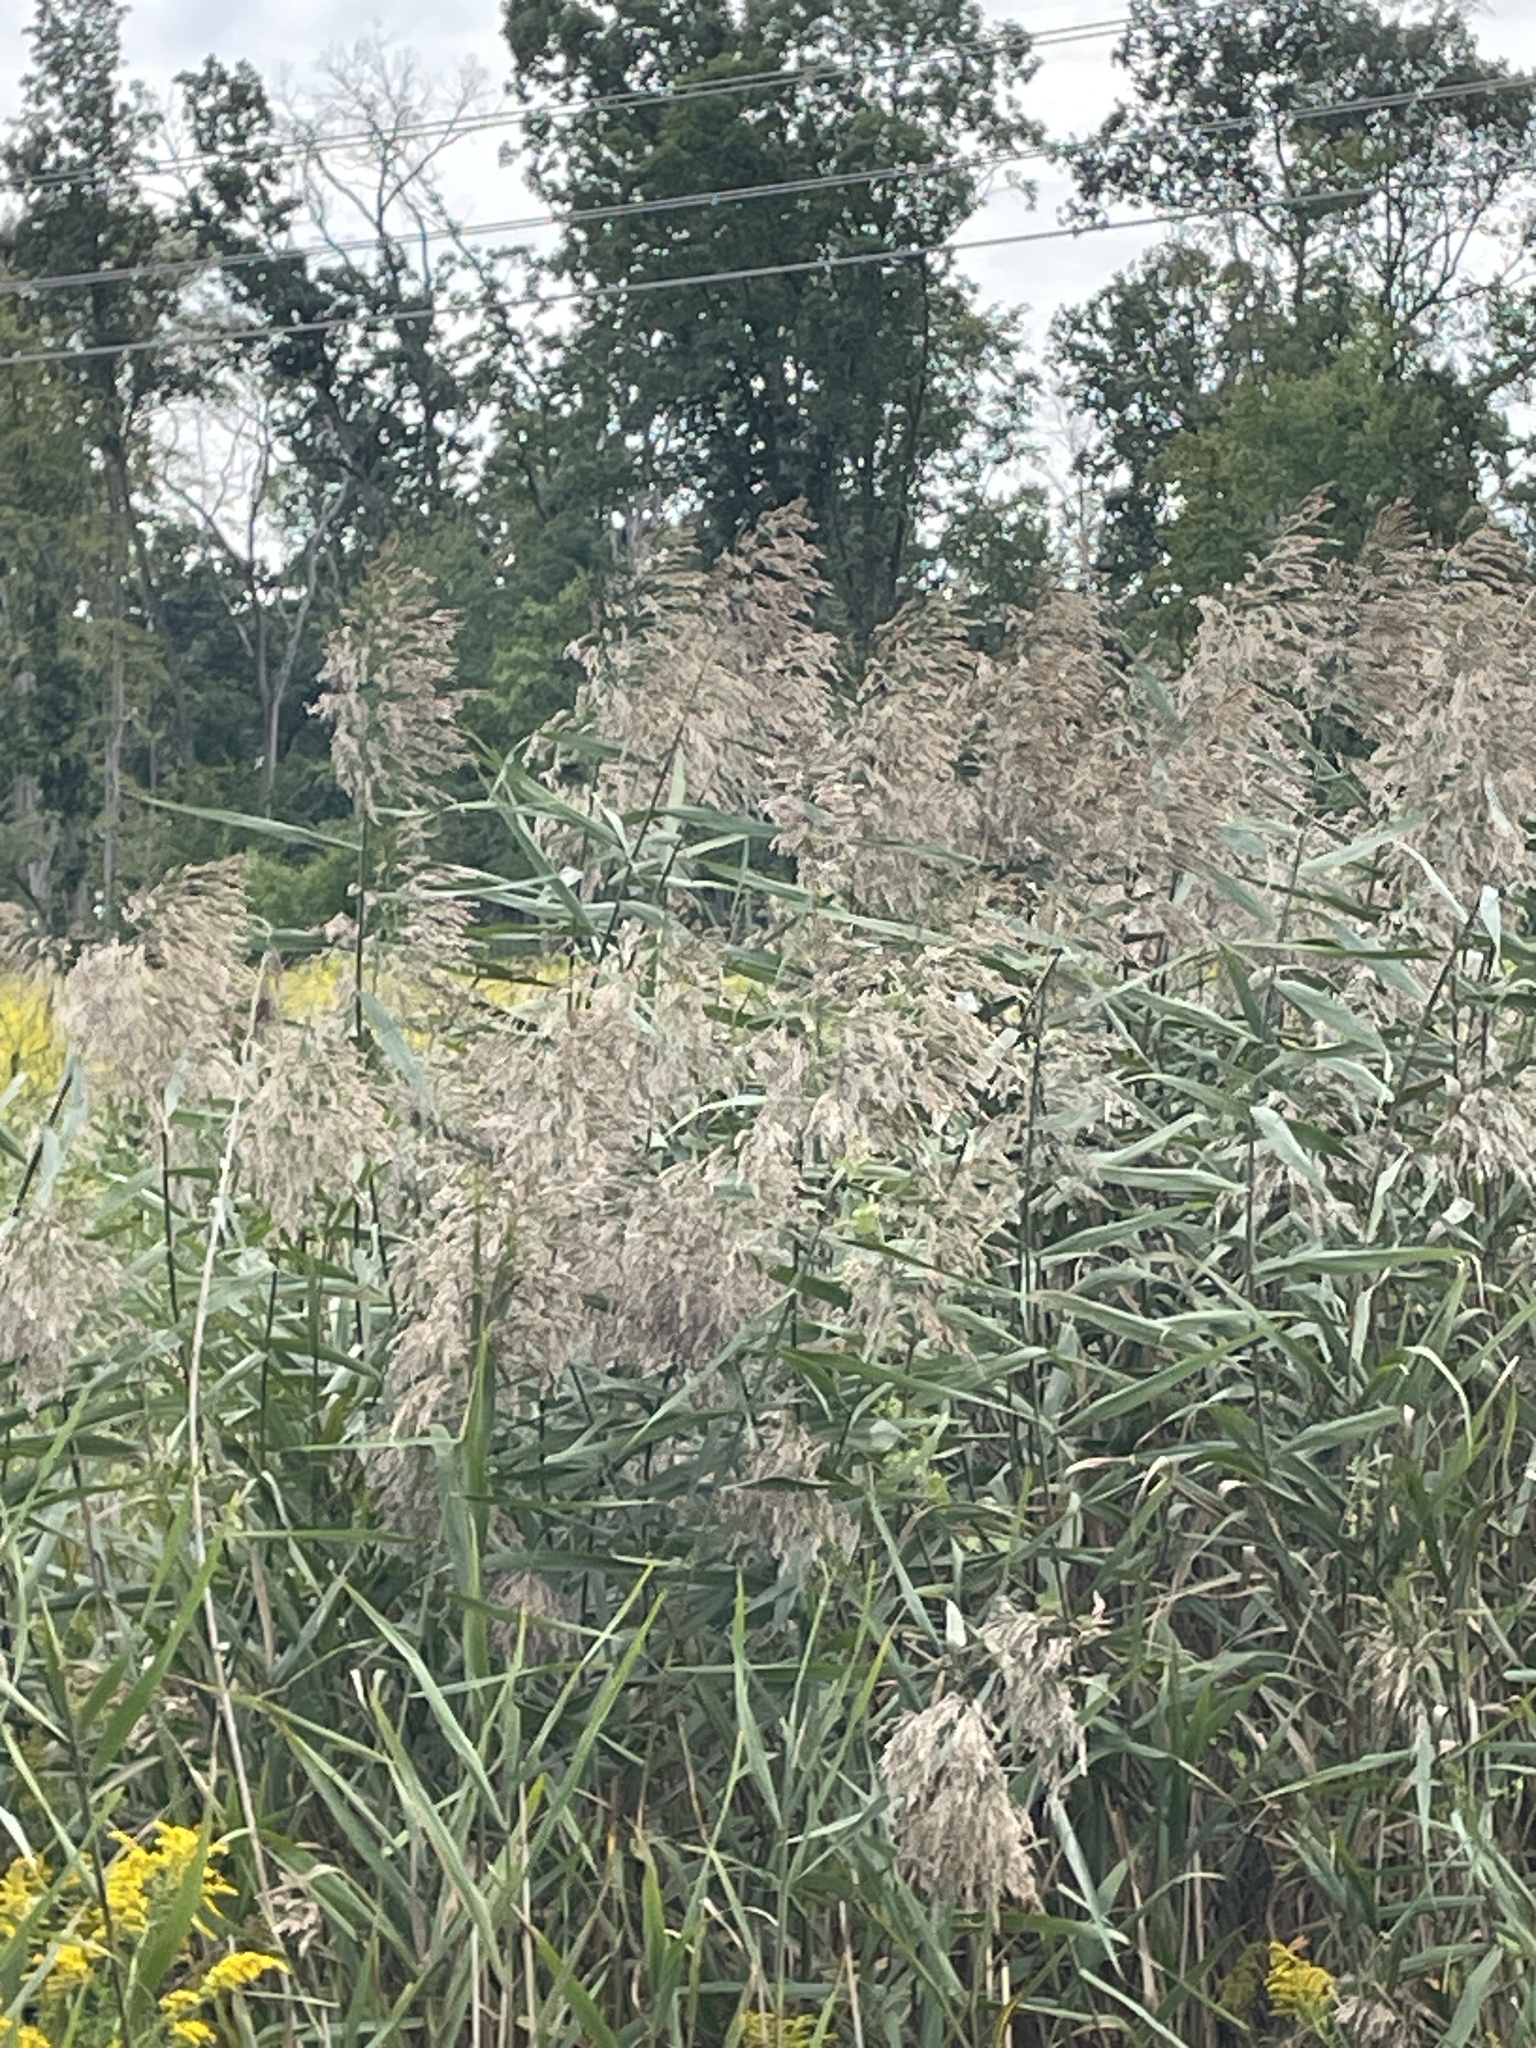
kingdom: Plantae
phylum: Tracheophyta
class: Liliopsida
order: Poales
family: Poaceae
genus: Phragmites
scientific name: Phragmites australis
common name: Common reed
